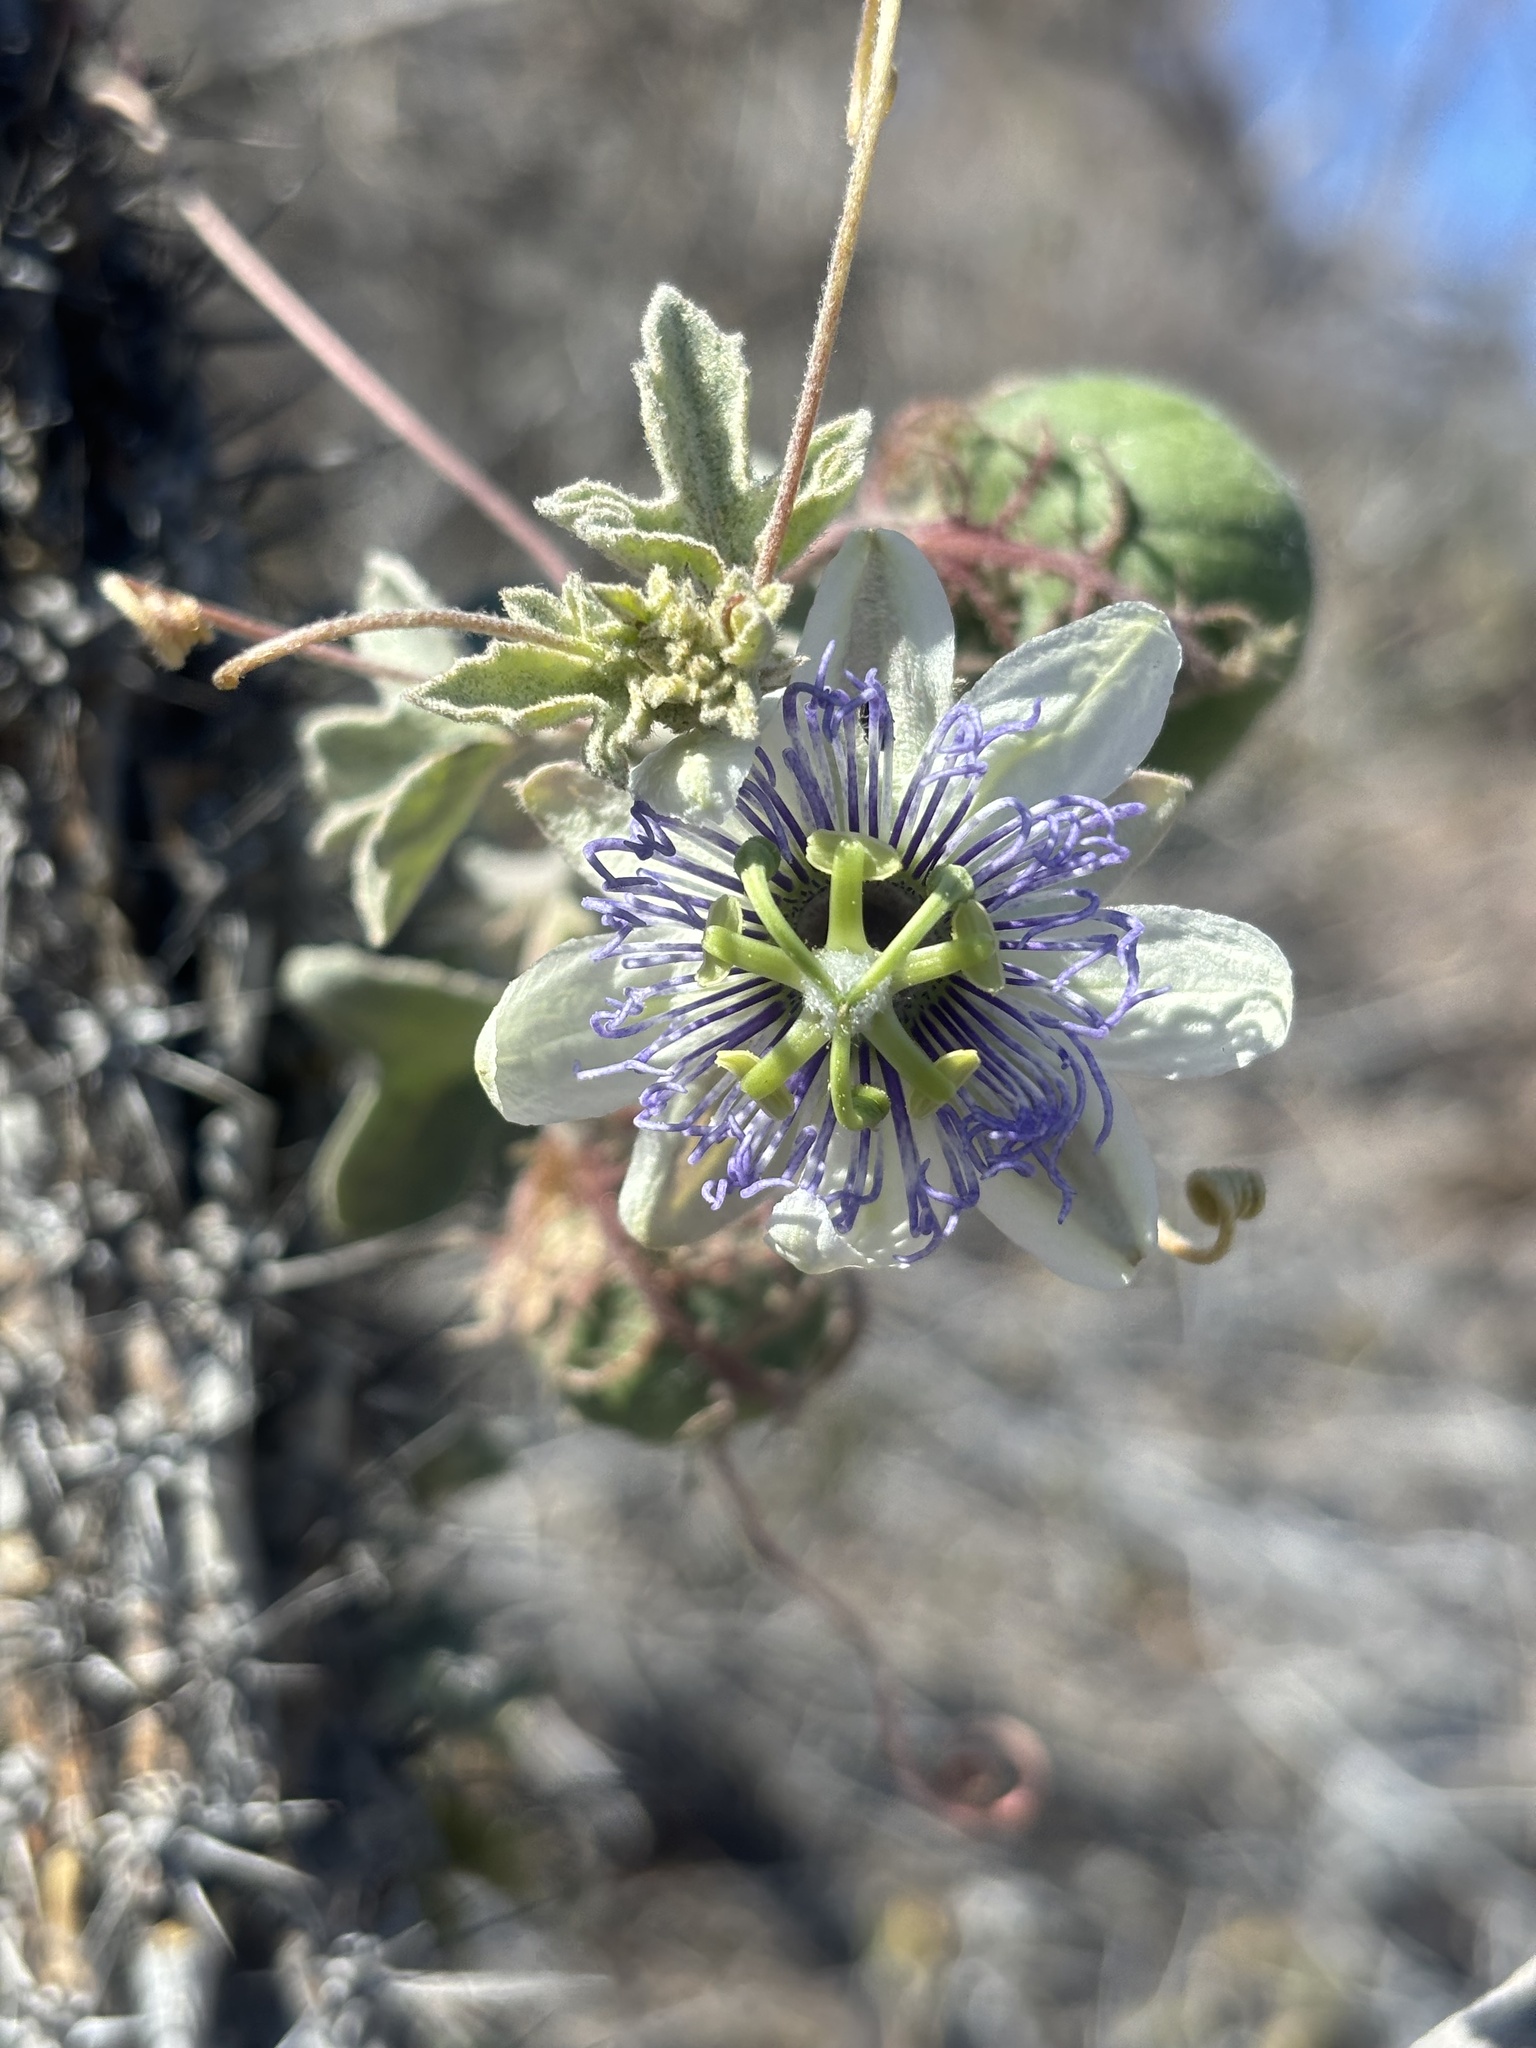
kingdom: Plantae
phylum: Tracheophyta
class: Magnoliopsida
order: Malpighiales
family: Passifloraceae
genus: Passiflora
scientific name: Passiflora arida
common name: Desert passionflower
